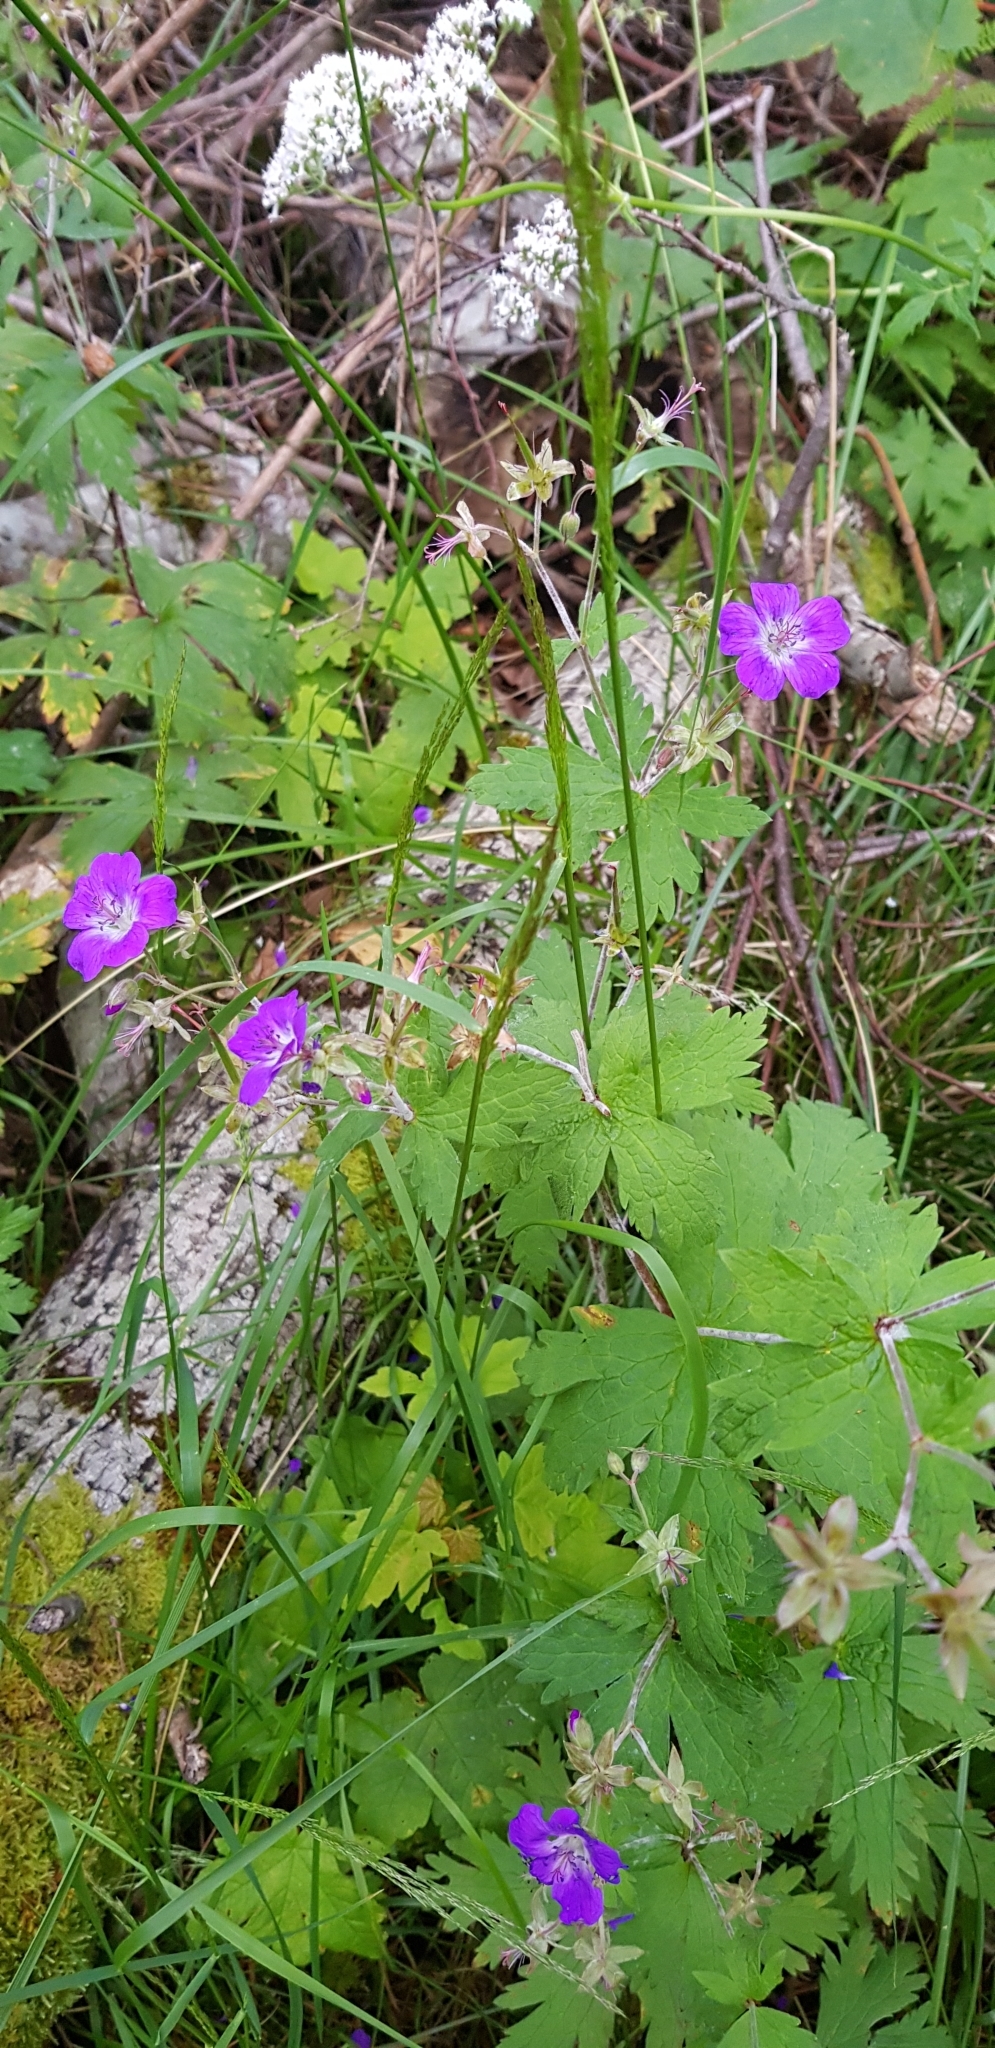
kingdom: Plantae
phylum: Tracheophyta
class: Magnoliopsida
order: Geraniales
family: Geraniaceae
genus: Geranium
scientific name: Geranium sylvaticum
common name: Wood crane's-bill
